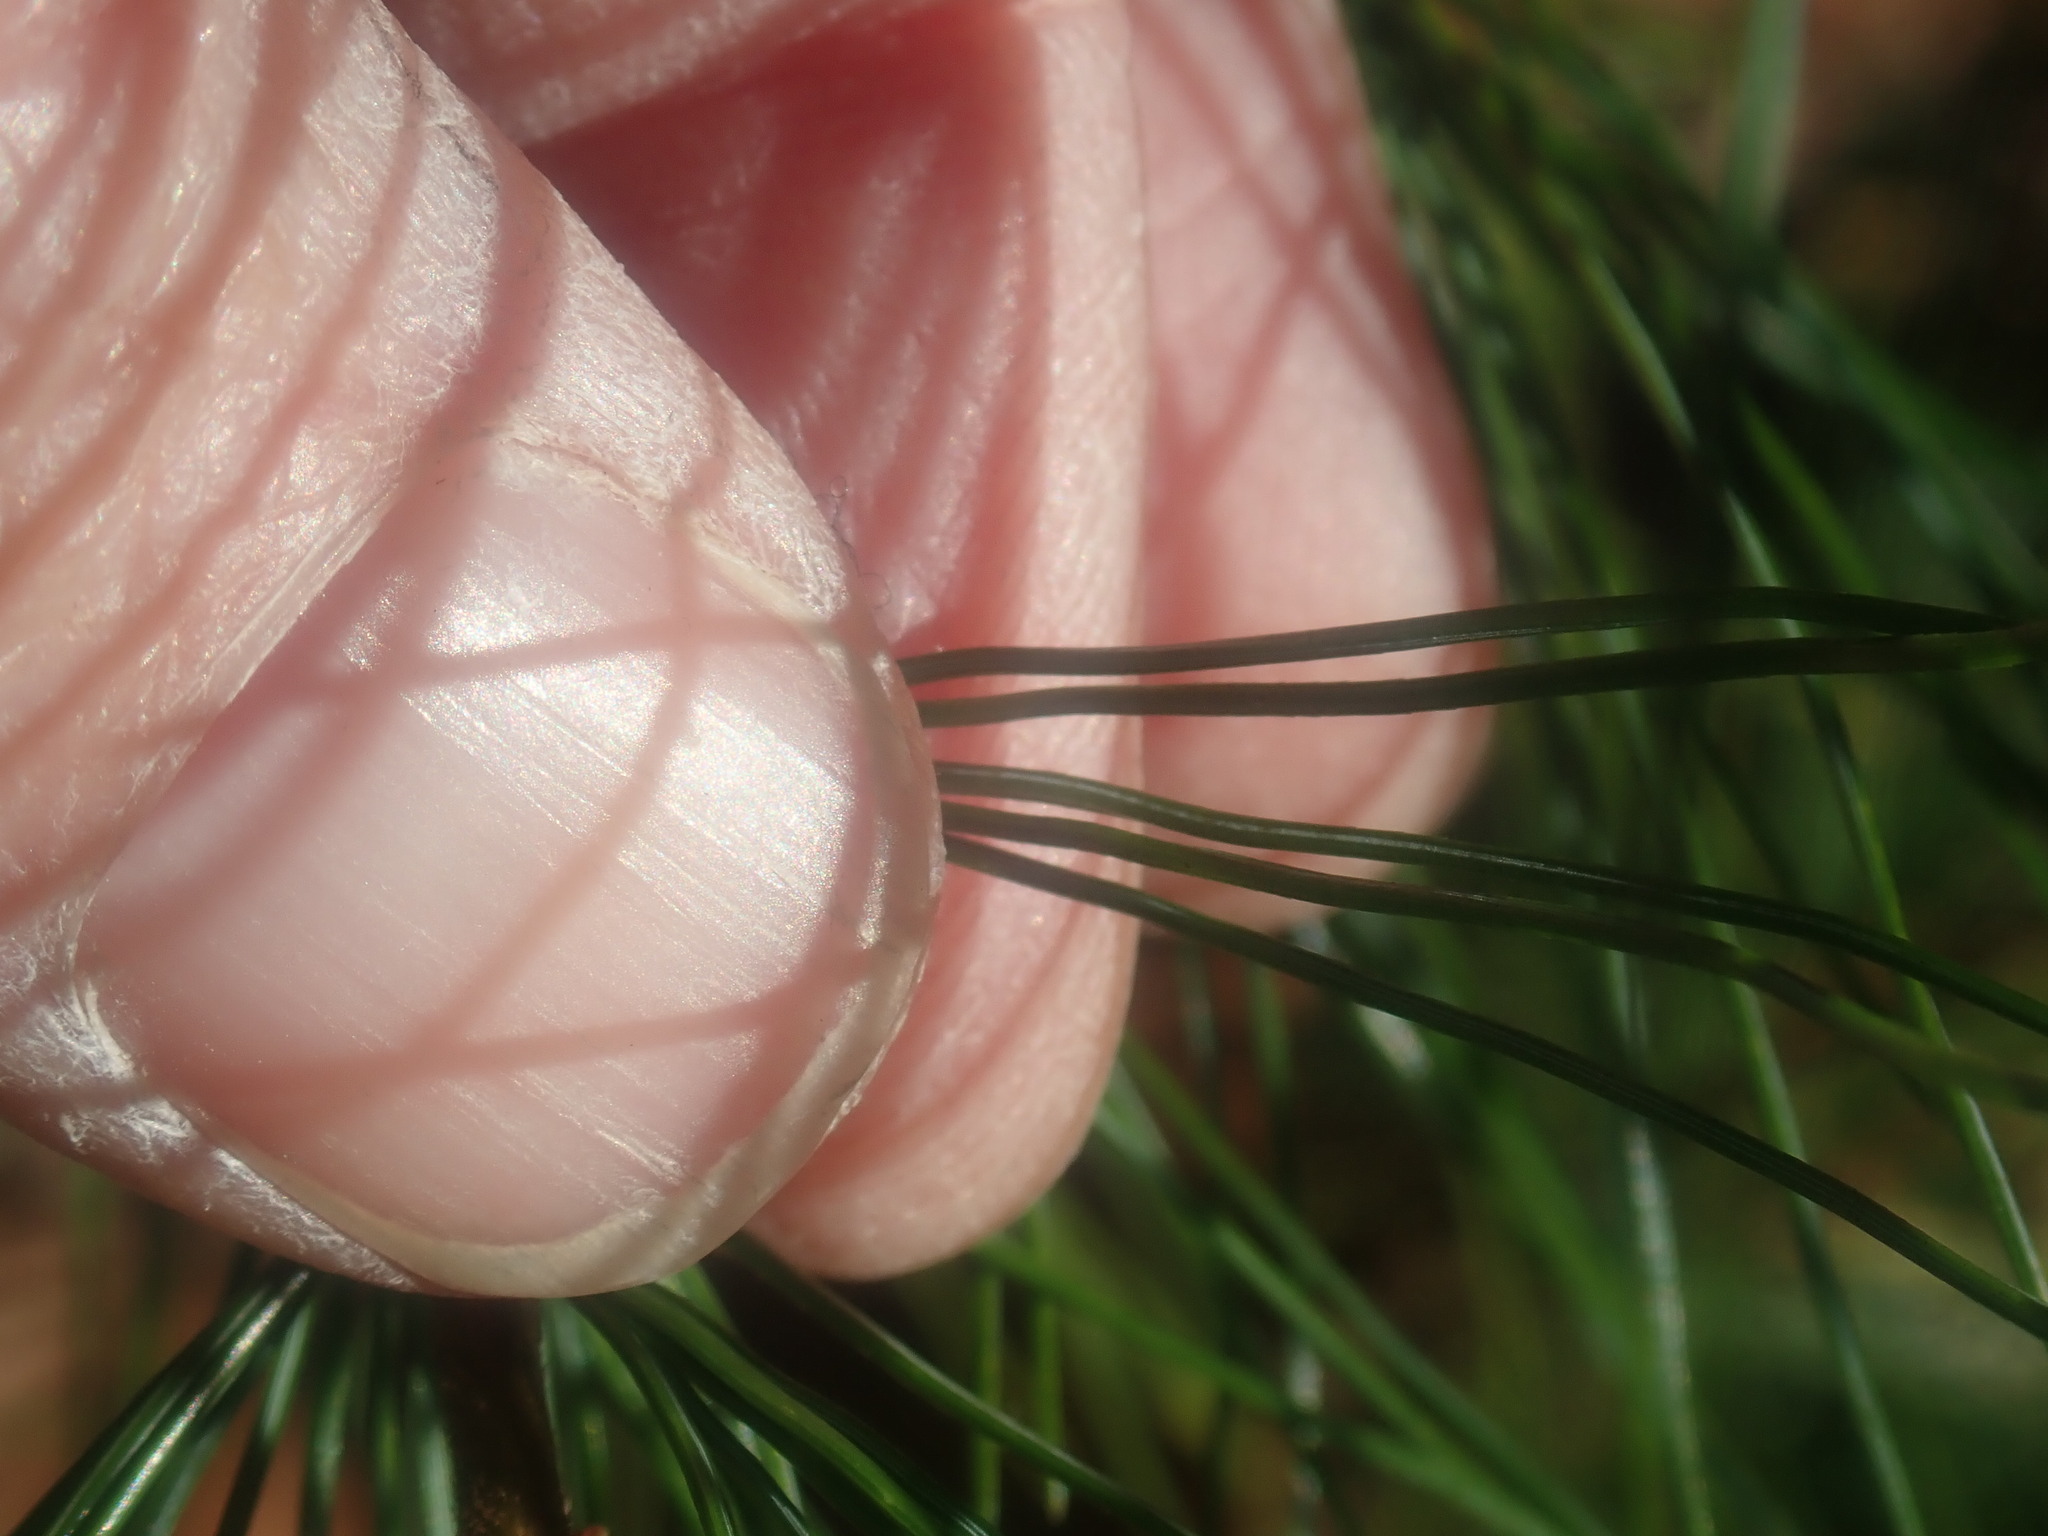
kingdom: Plantae
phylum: Tracheophyta
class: Pinopsida
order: Pinales
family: Pinaceae
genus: Pinus
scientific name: Pinus strobus
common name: Weymouth pine
